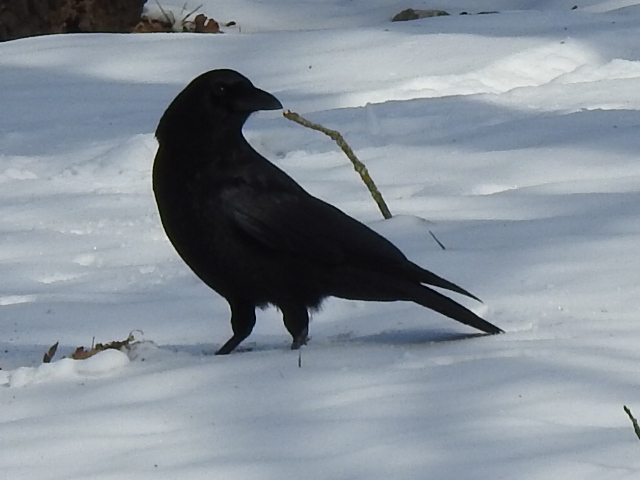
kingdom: Animalia
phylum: Chordata
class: Aves
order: Passeriformes
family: Corvidae
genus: Corvus
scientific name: Corvus brachyrhynchos
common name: American crow
